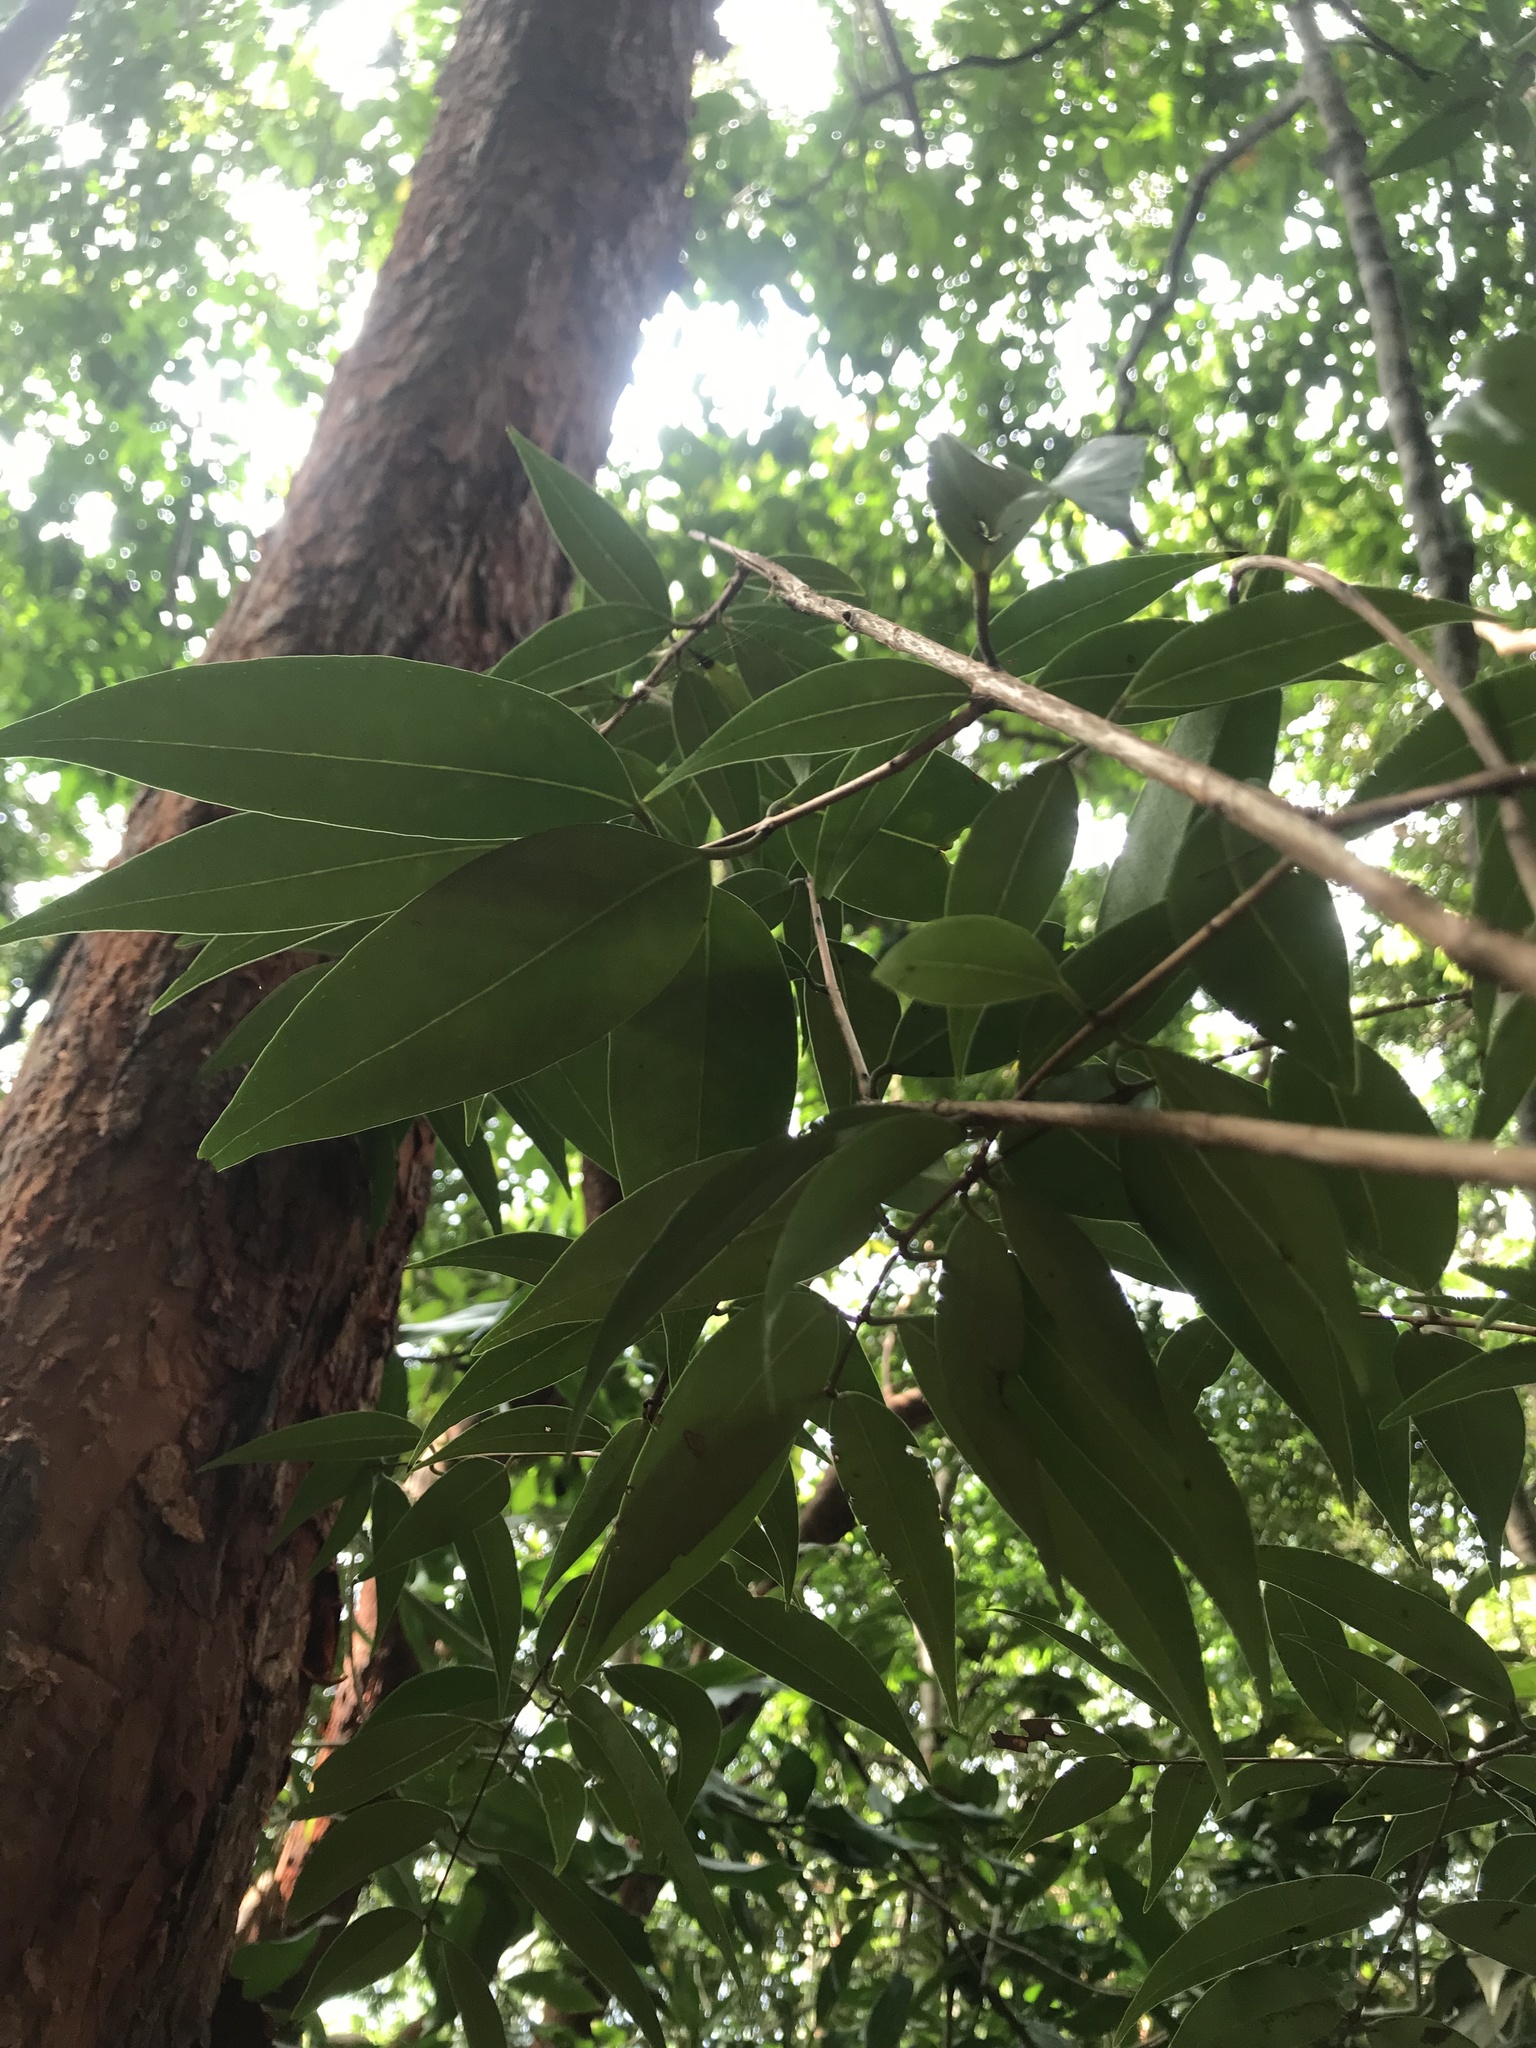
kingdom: Plantae
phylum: Tracheophyta
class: Magnoliopsida
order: Myrtales
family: Myrtaceae
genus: Syzygium
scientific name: Syzygium antisepticum
